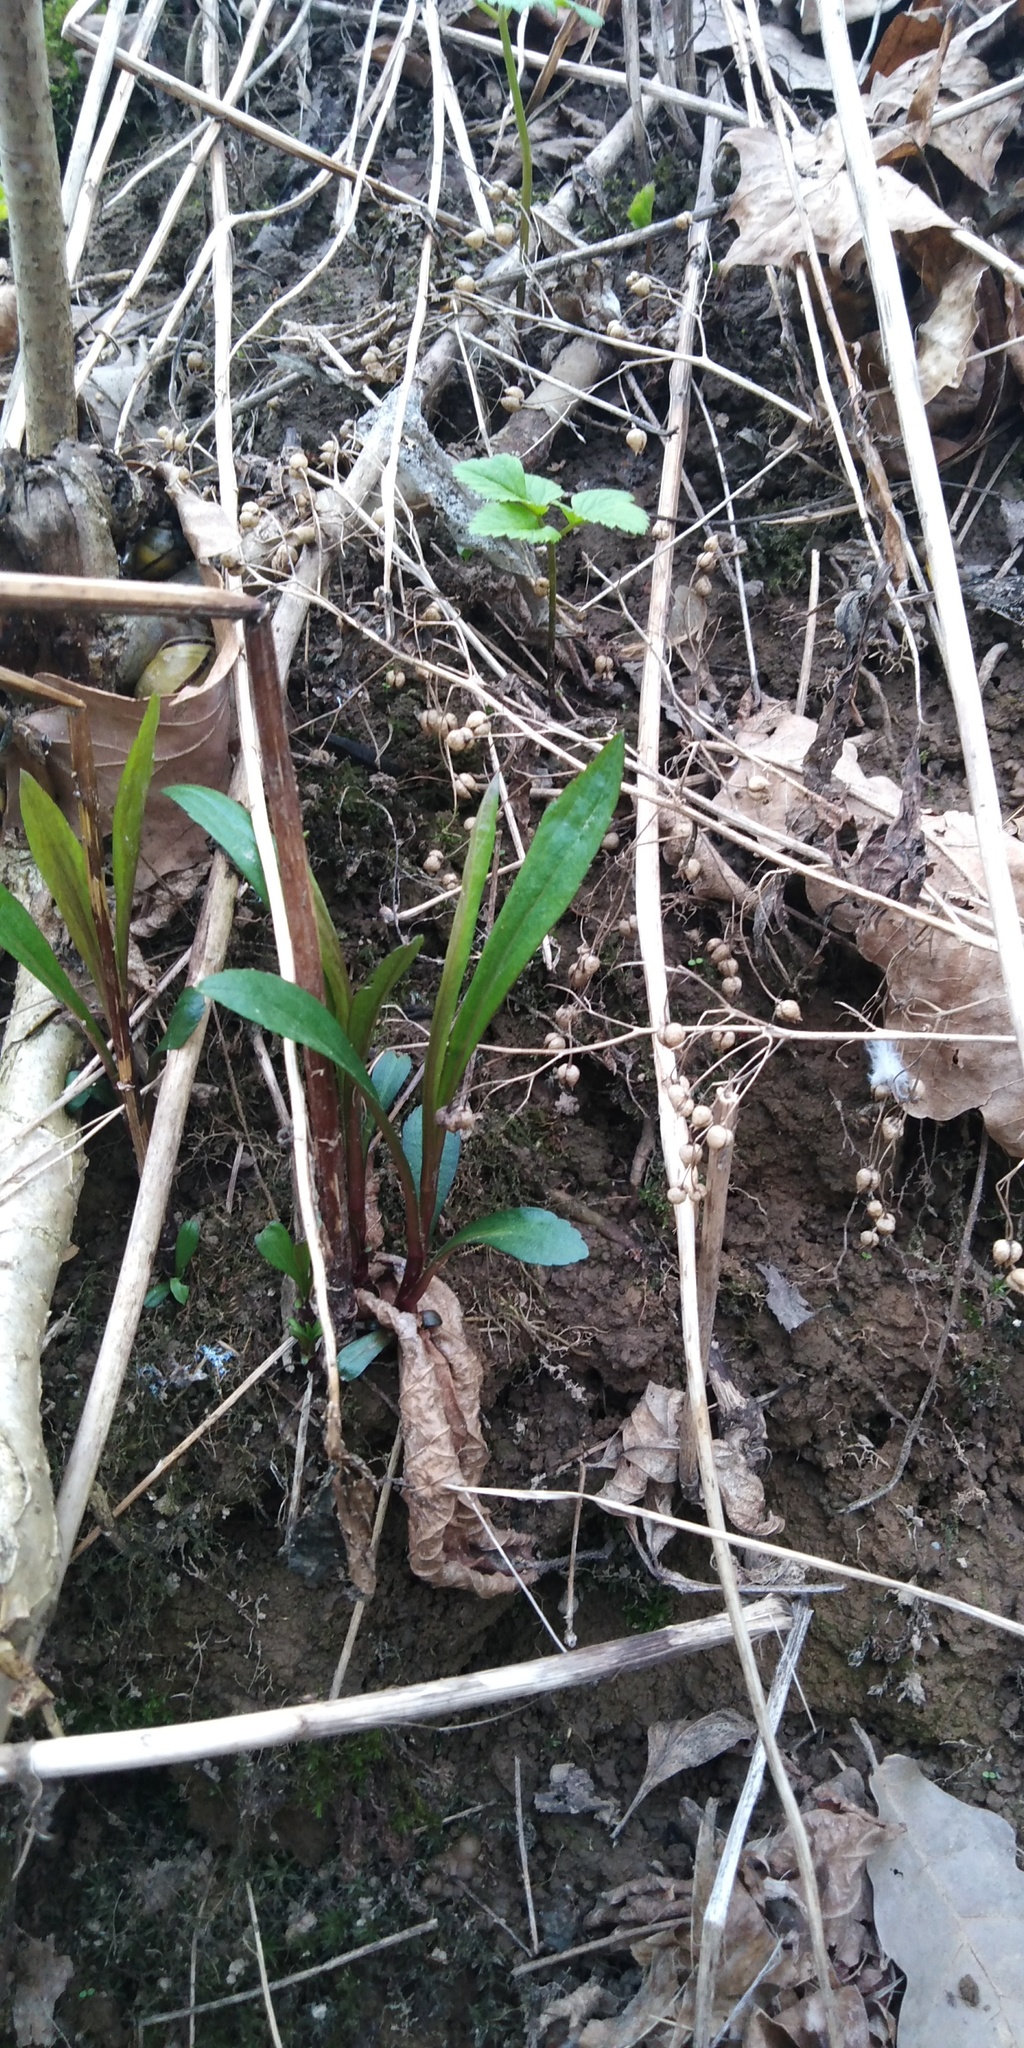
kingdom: Plantae
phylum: Tracheophyta
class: Magnoliopsida
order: Asterales
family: Asteraceae
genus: Solidago
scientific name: Solidago gigantea
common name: Giant goldenrod
